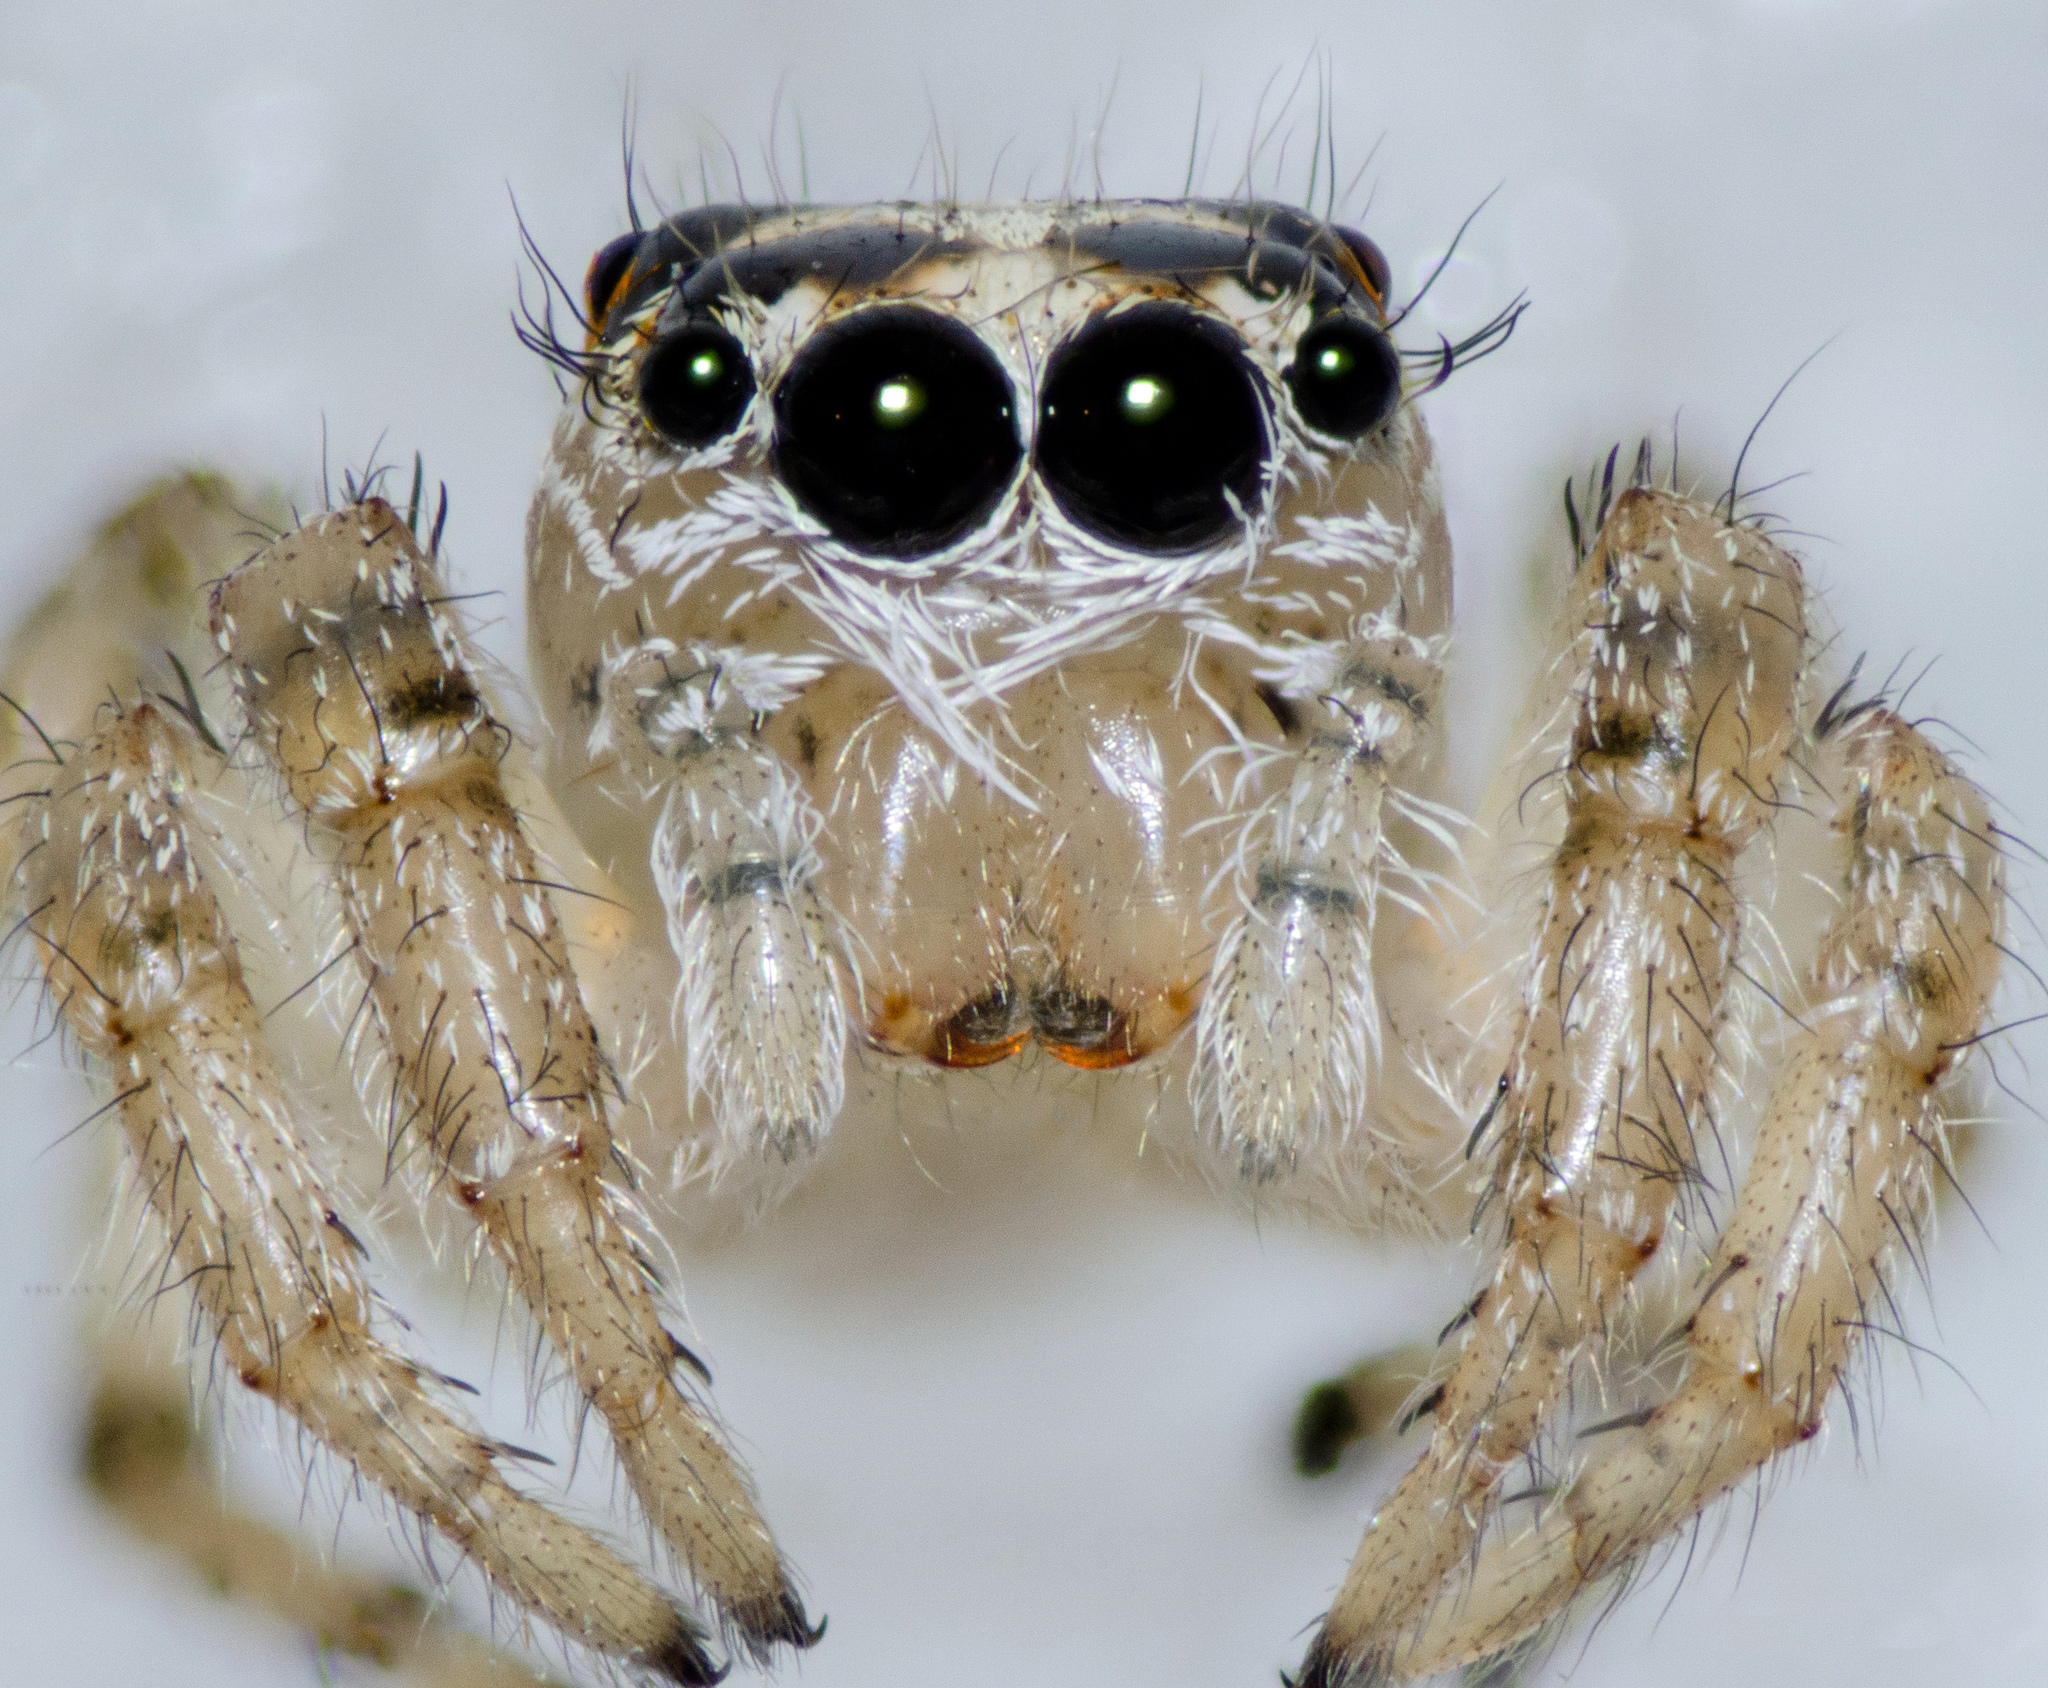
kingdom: Animalia
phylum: Arthropoda
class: Arachnida
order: Araneae
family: Salticidae
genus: Colonus
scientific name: Colonus hesperus
